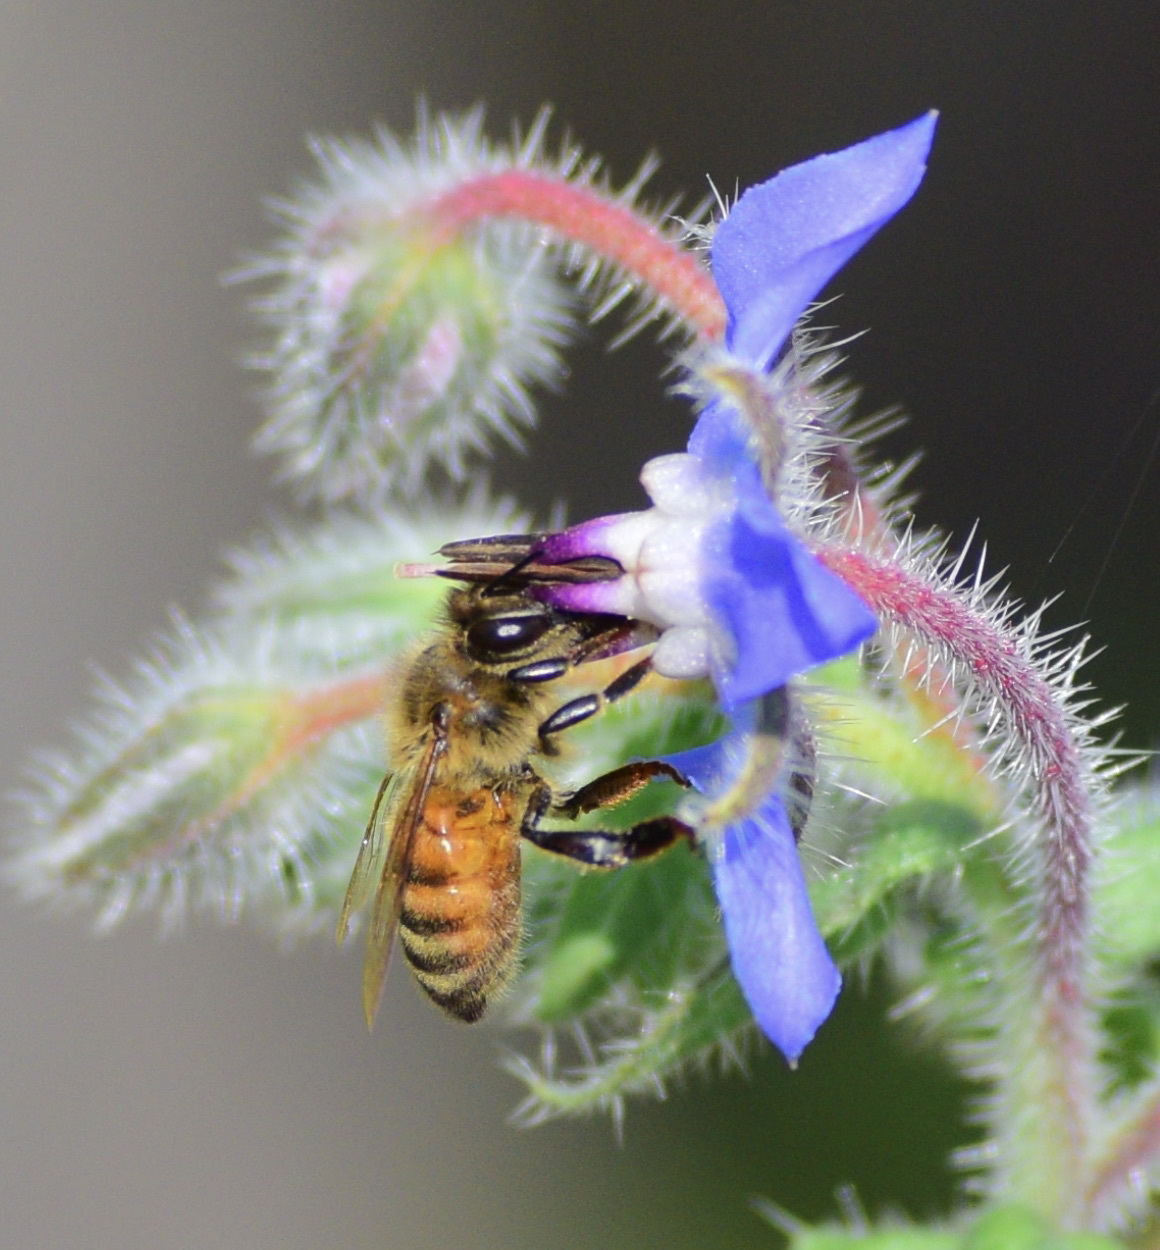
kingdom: Animalia
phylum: Arthropoda
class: Insecta
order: Hymenoptera
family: Apidae
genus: Apis
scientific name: Apis mellifera
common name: Honey bee
